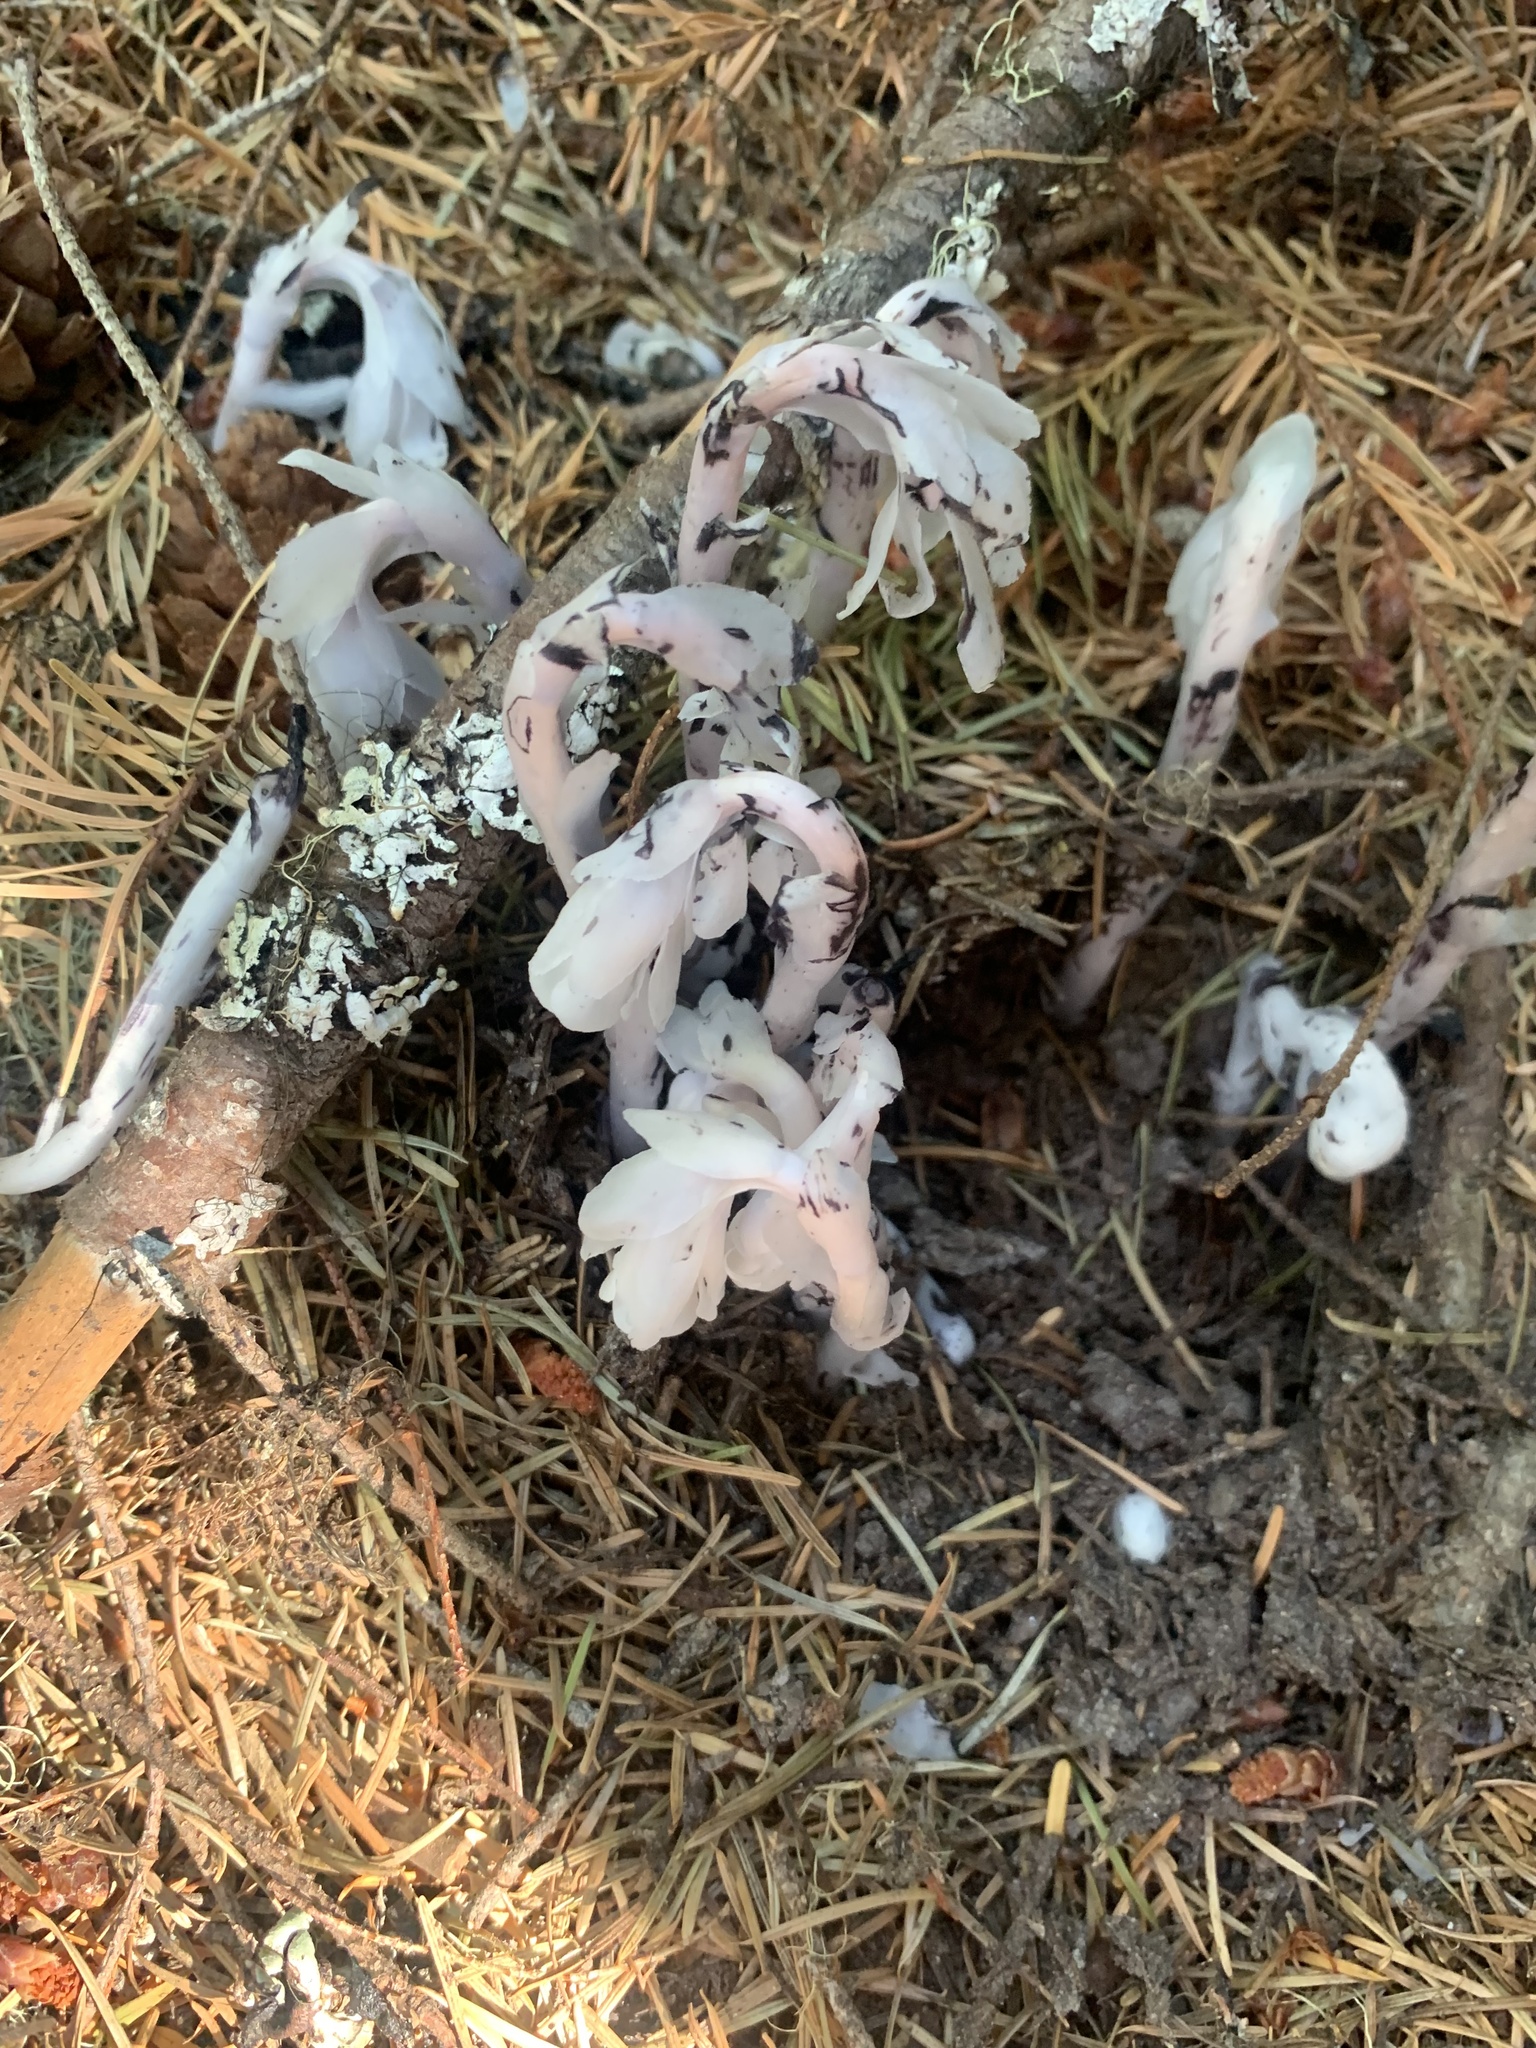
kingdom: Plantae
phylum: Tracheophyta
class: Magnoliopsida
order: Ericales
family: Ericaceae
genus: Monotropa
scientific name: Monotropa uniflora
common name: Convulsion root
